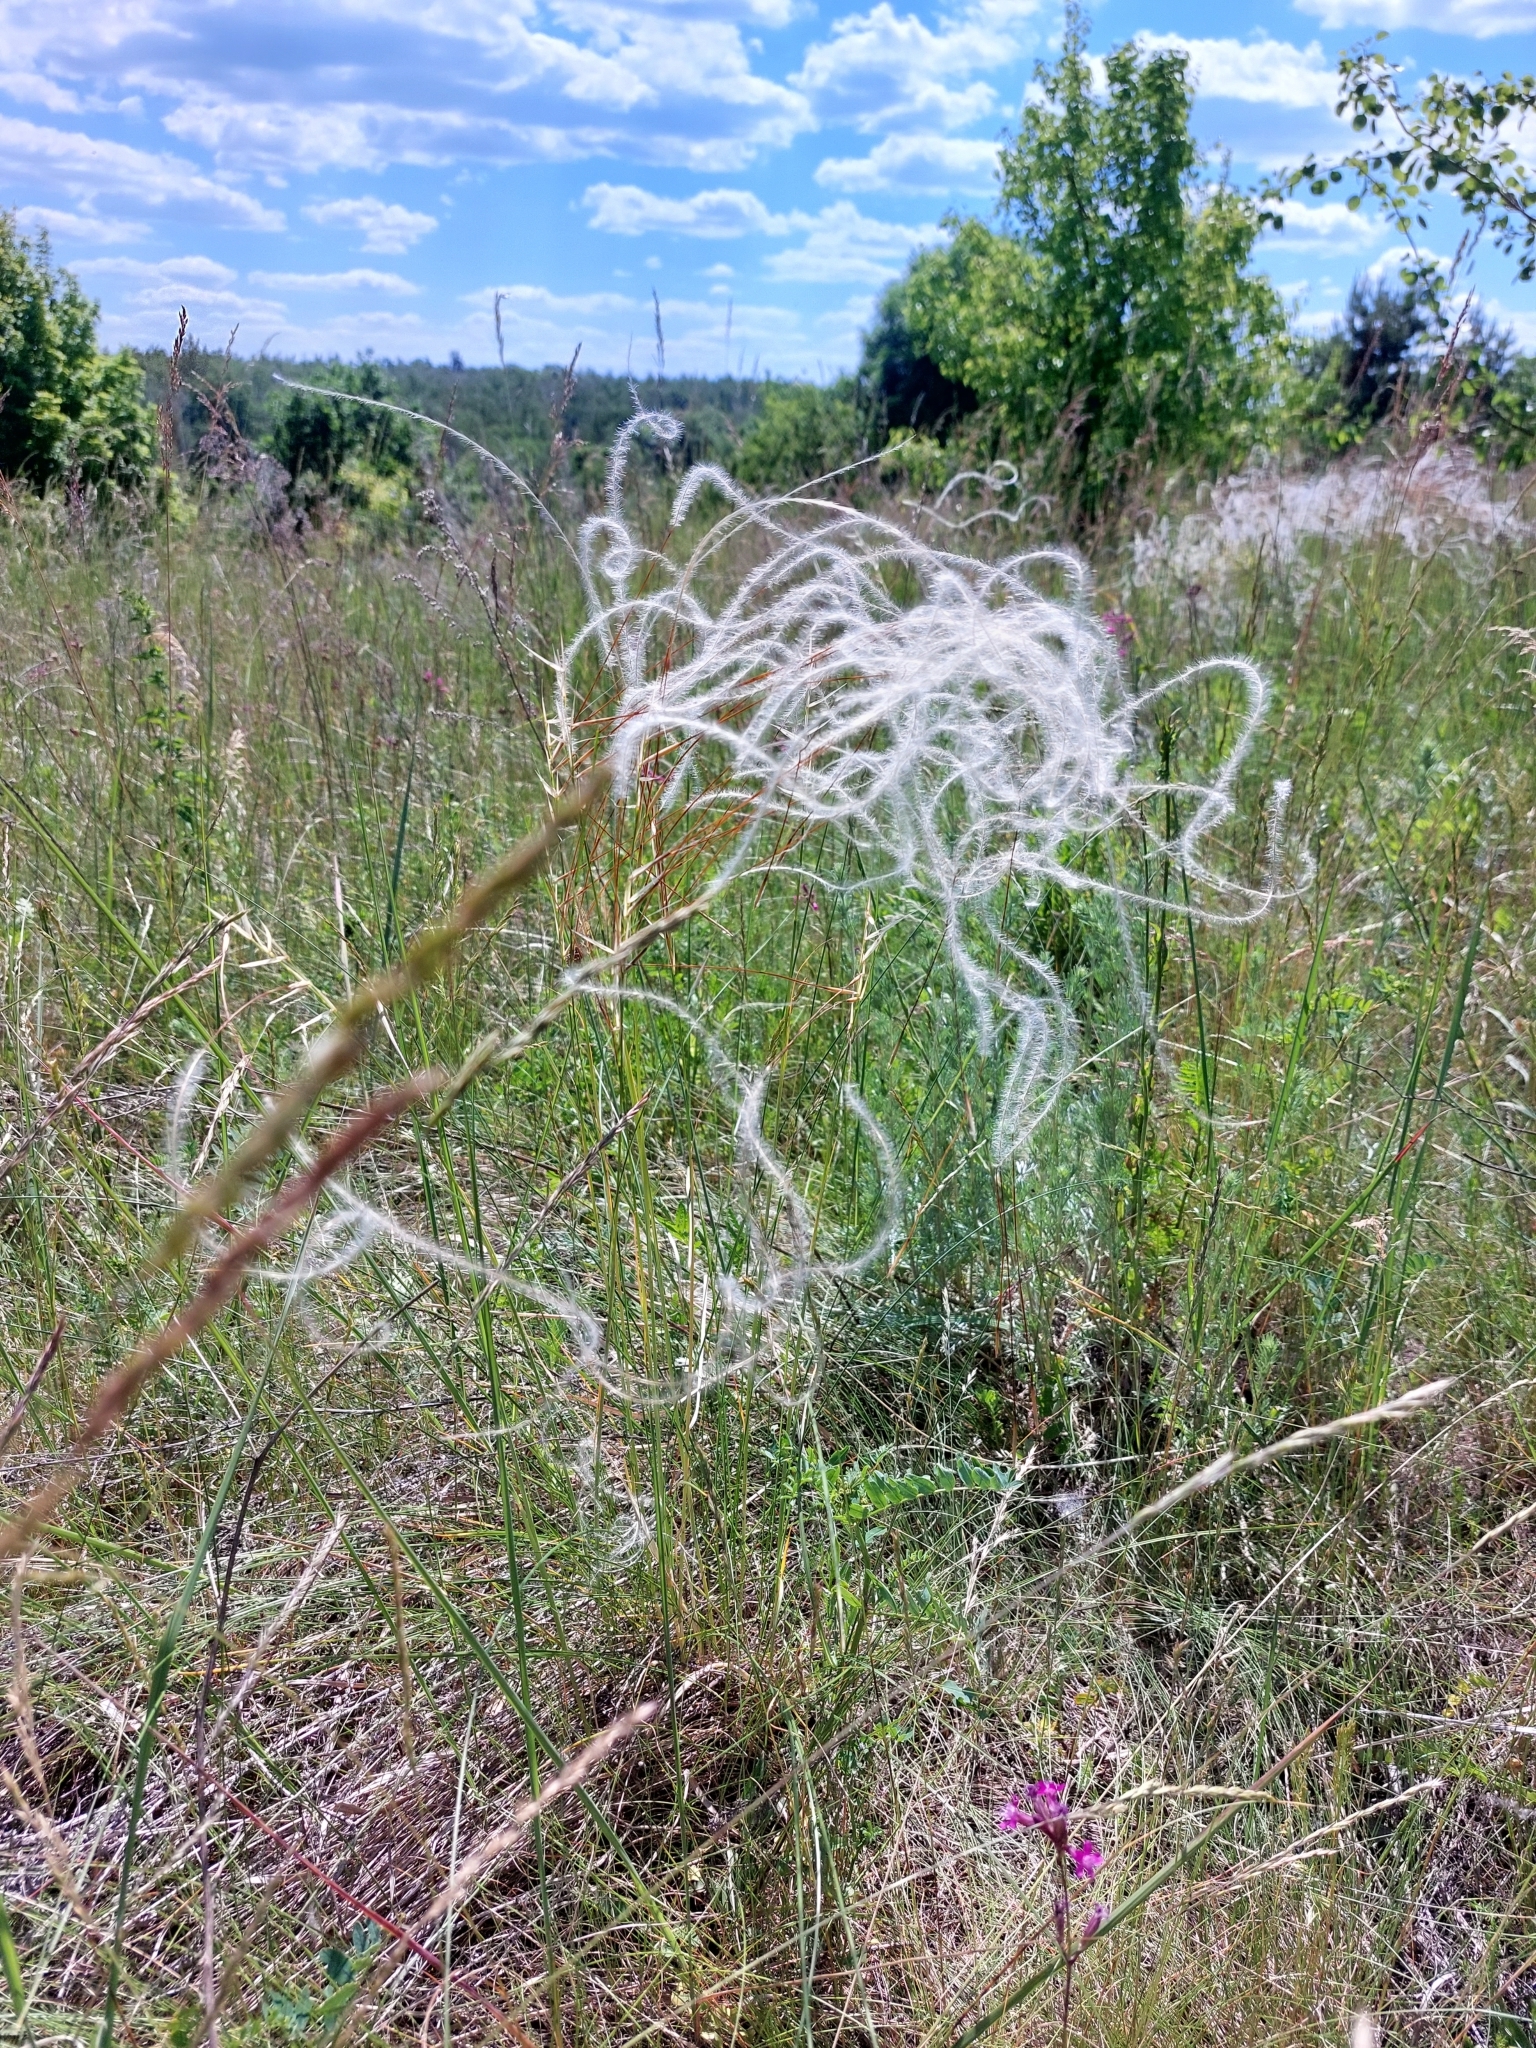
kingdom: Plantae
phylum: Tracheophyta
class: Liliopsida
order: Poales
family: Poaceae
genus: Stipa
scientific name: Stipa pennata
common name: European feather grass
